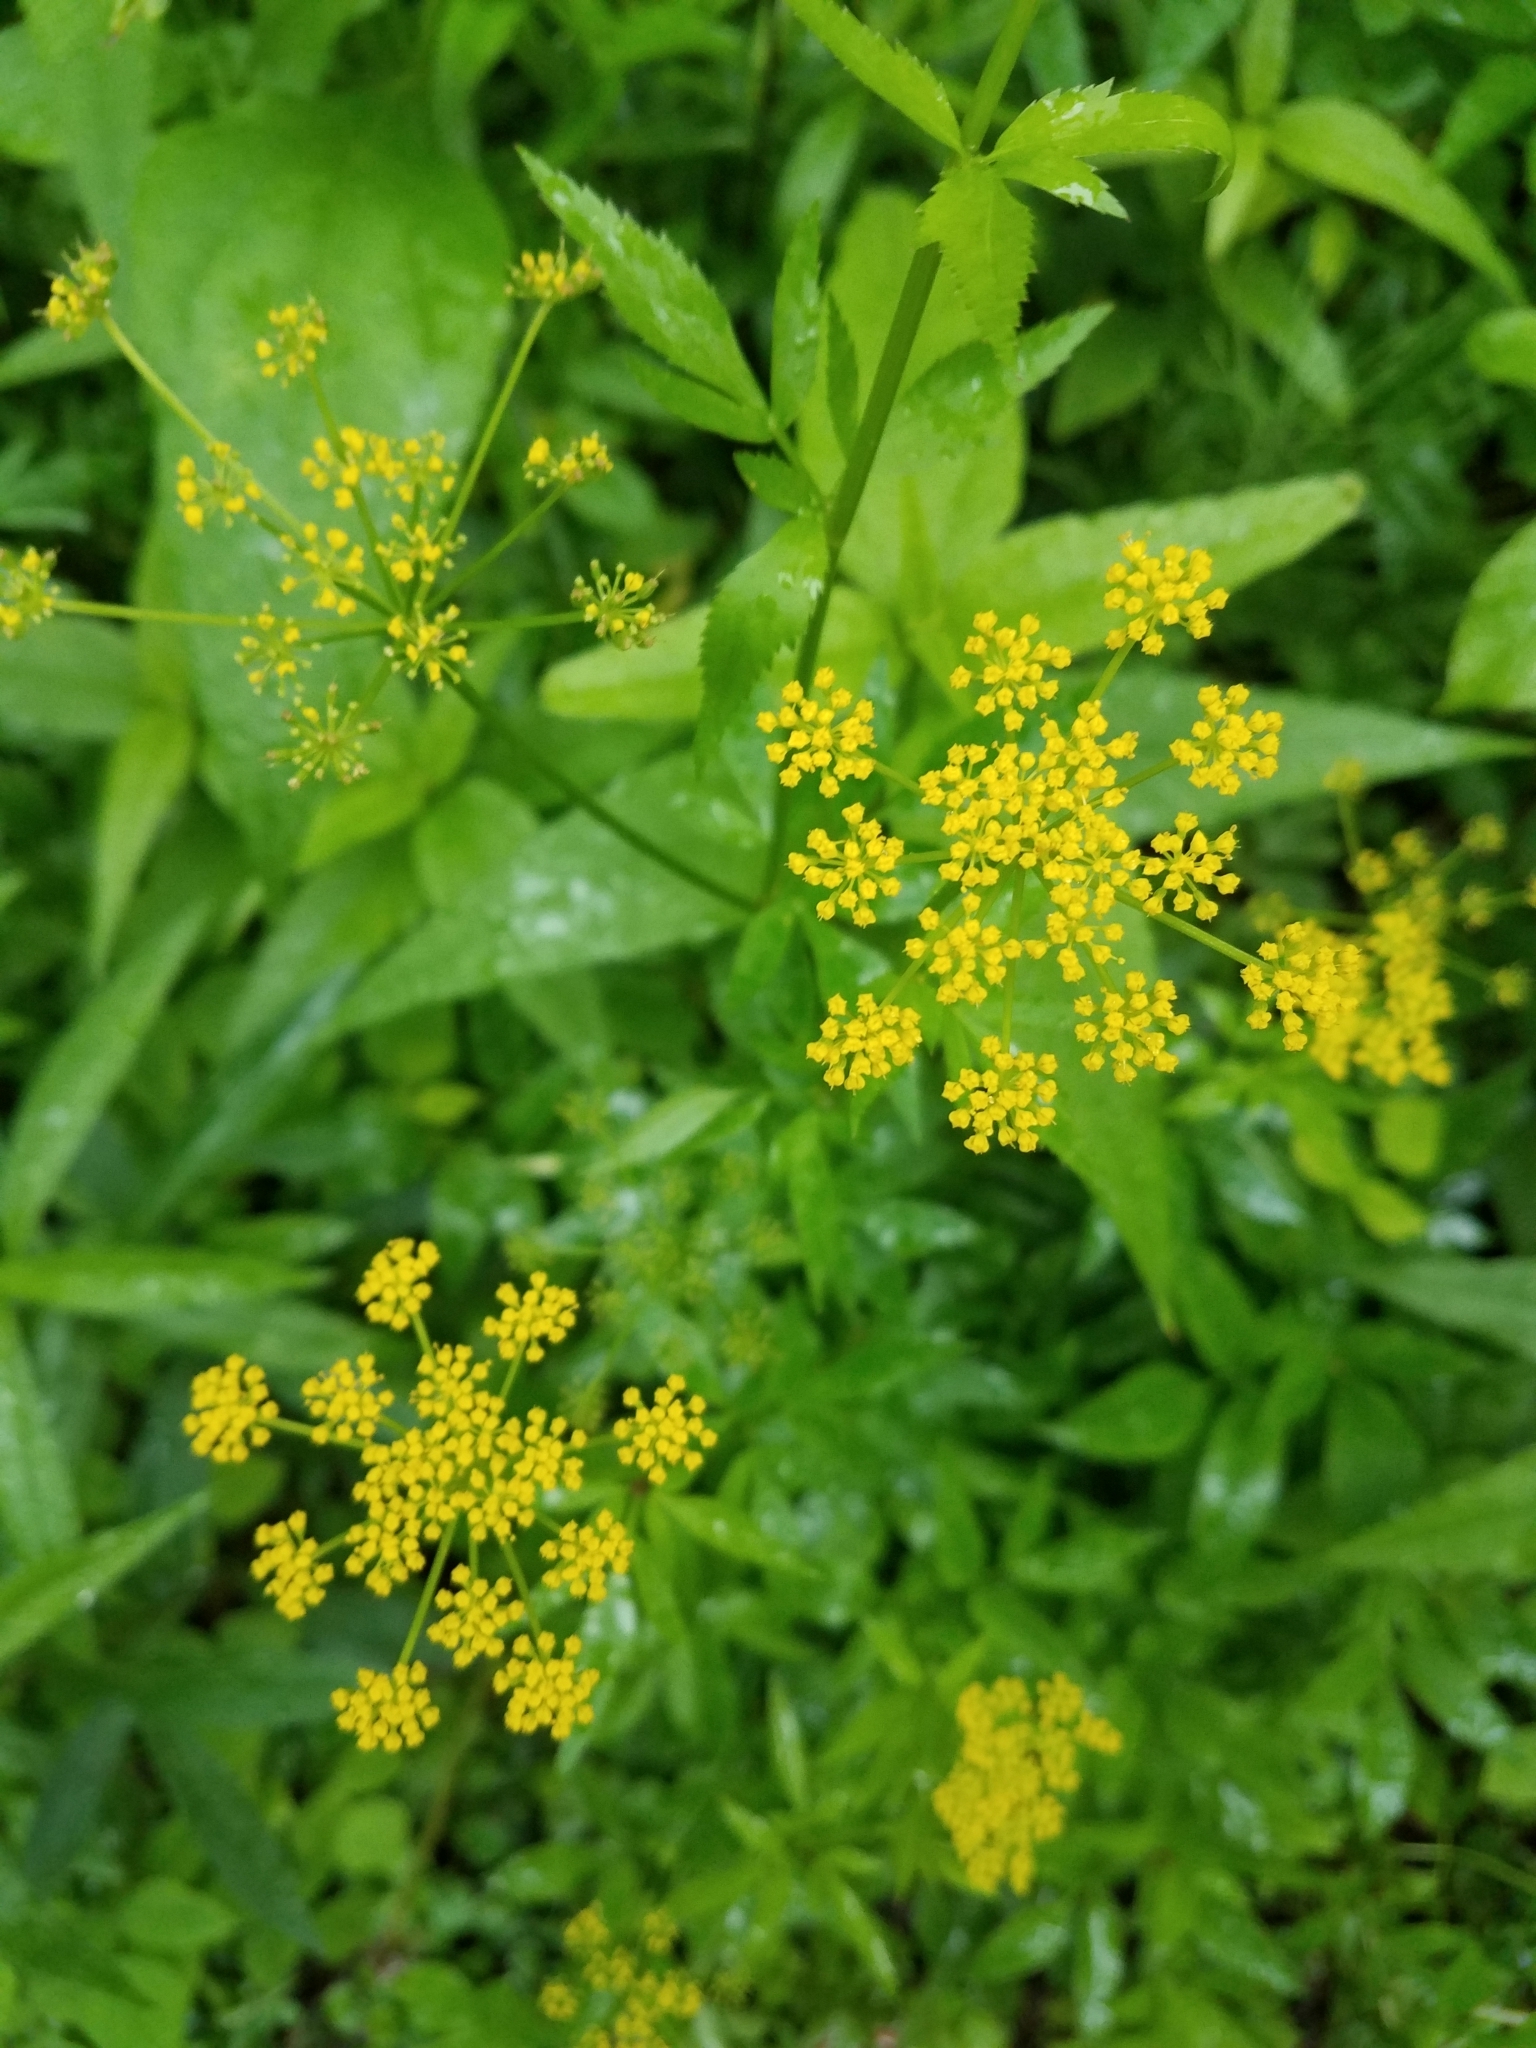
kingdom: Plantae
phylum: Tracheophyta
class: Magnoliopsida
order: Apiales
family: Apiaceae
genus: Zizia
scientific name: Zizia aurea
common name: Golden alexanders
